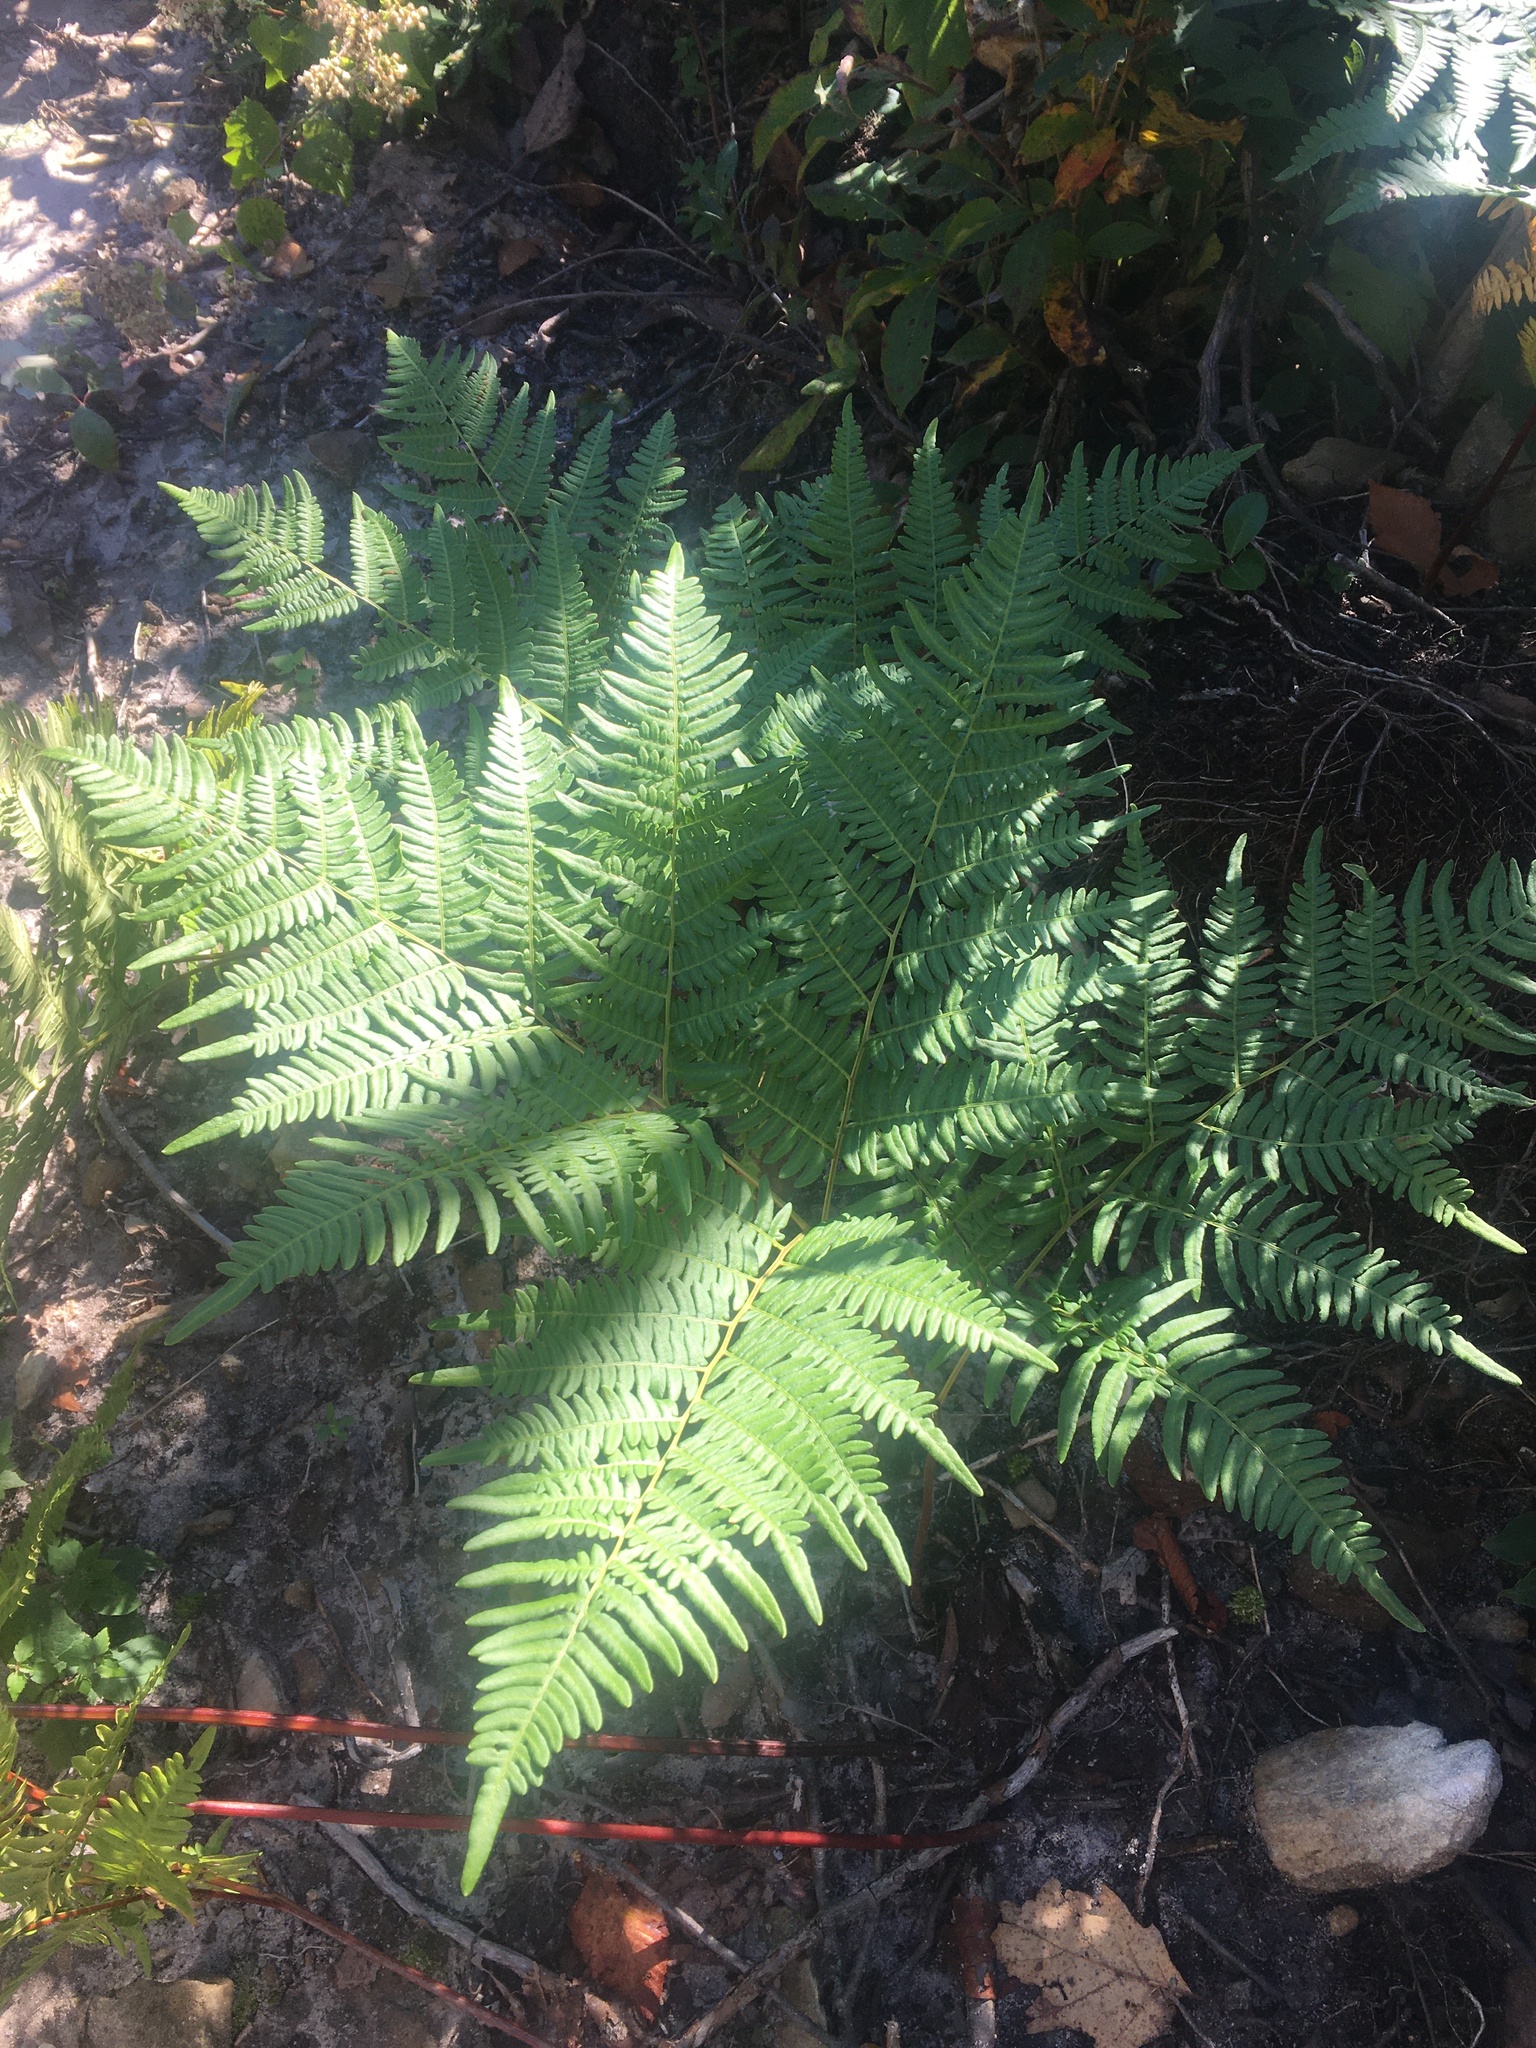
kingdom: Plantae
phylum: Tracheophyta
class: Polypodiopsida
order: Polypodiales
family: Dennstaedtiaceae
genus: Pteridium
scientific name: Pteridium aquilinum
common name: Bracken
